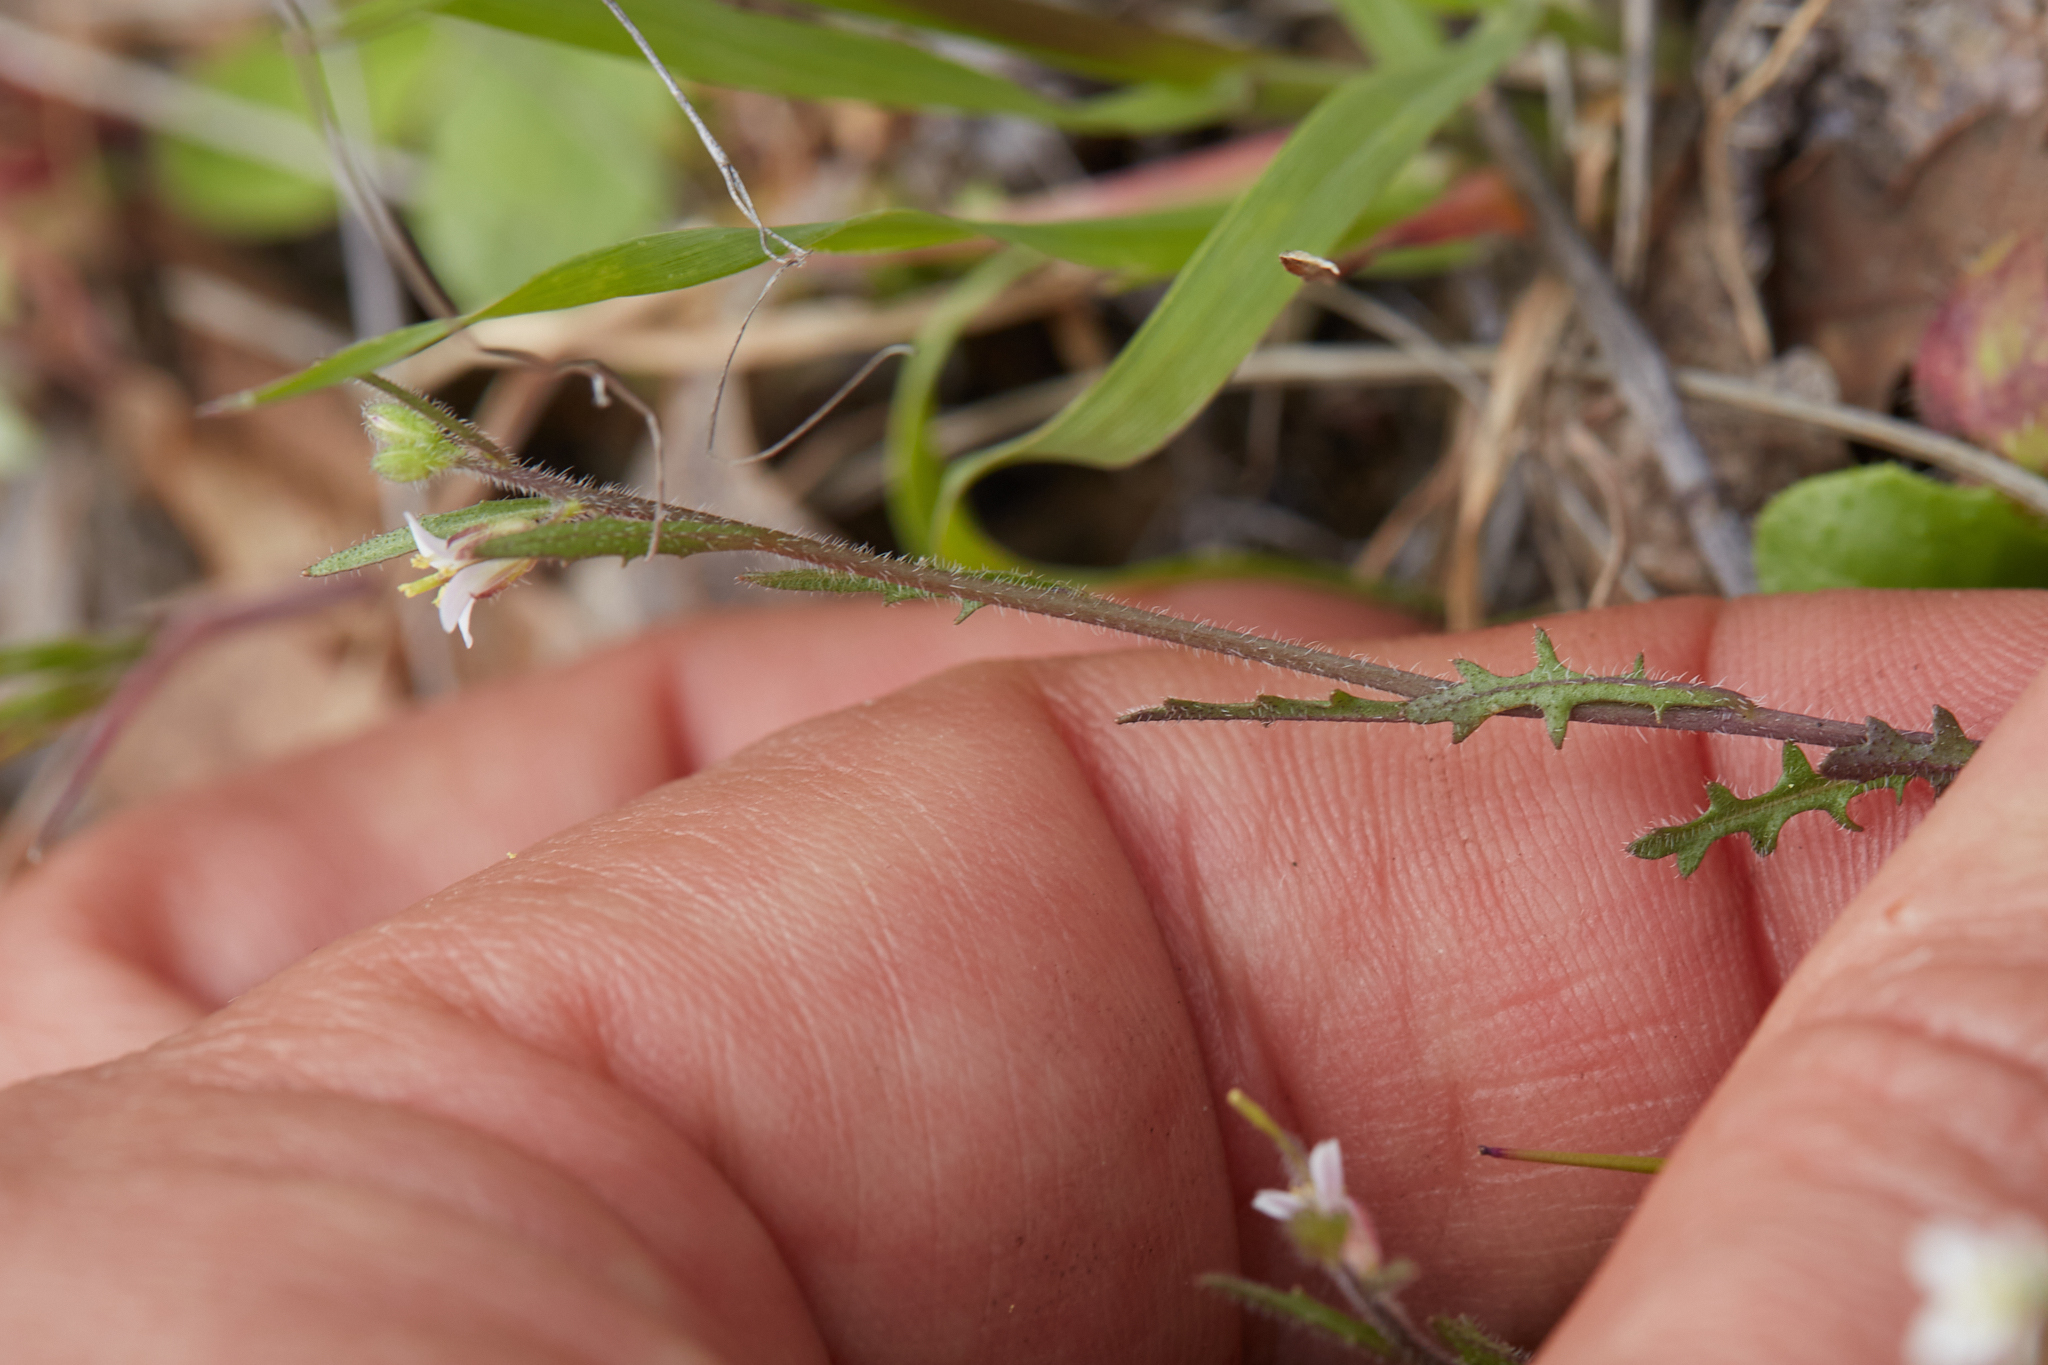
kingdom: Plantae
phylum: Tracheophyta
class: Magnoliopsida
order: Brassicales
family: Brassicaceae
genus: Streptanthus
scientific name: Streptanthus lasiophyllus
